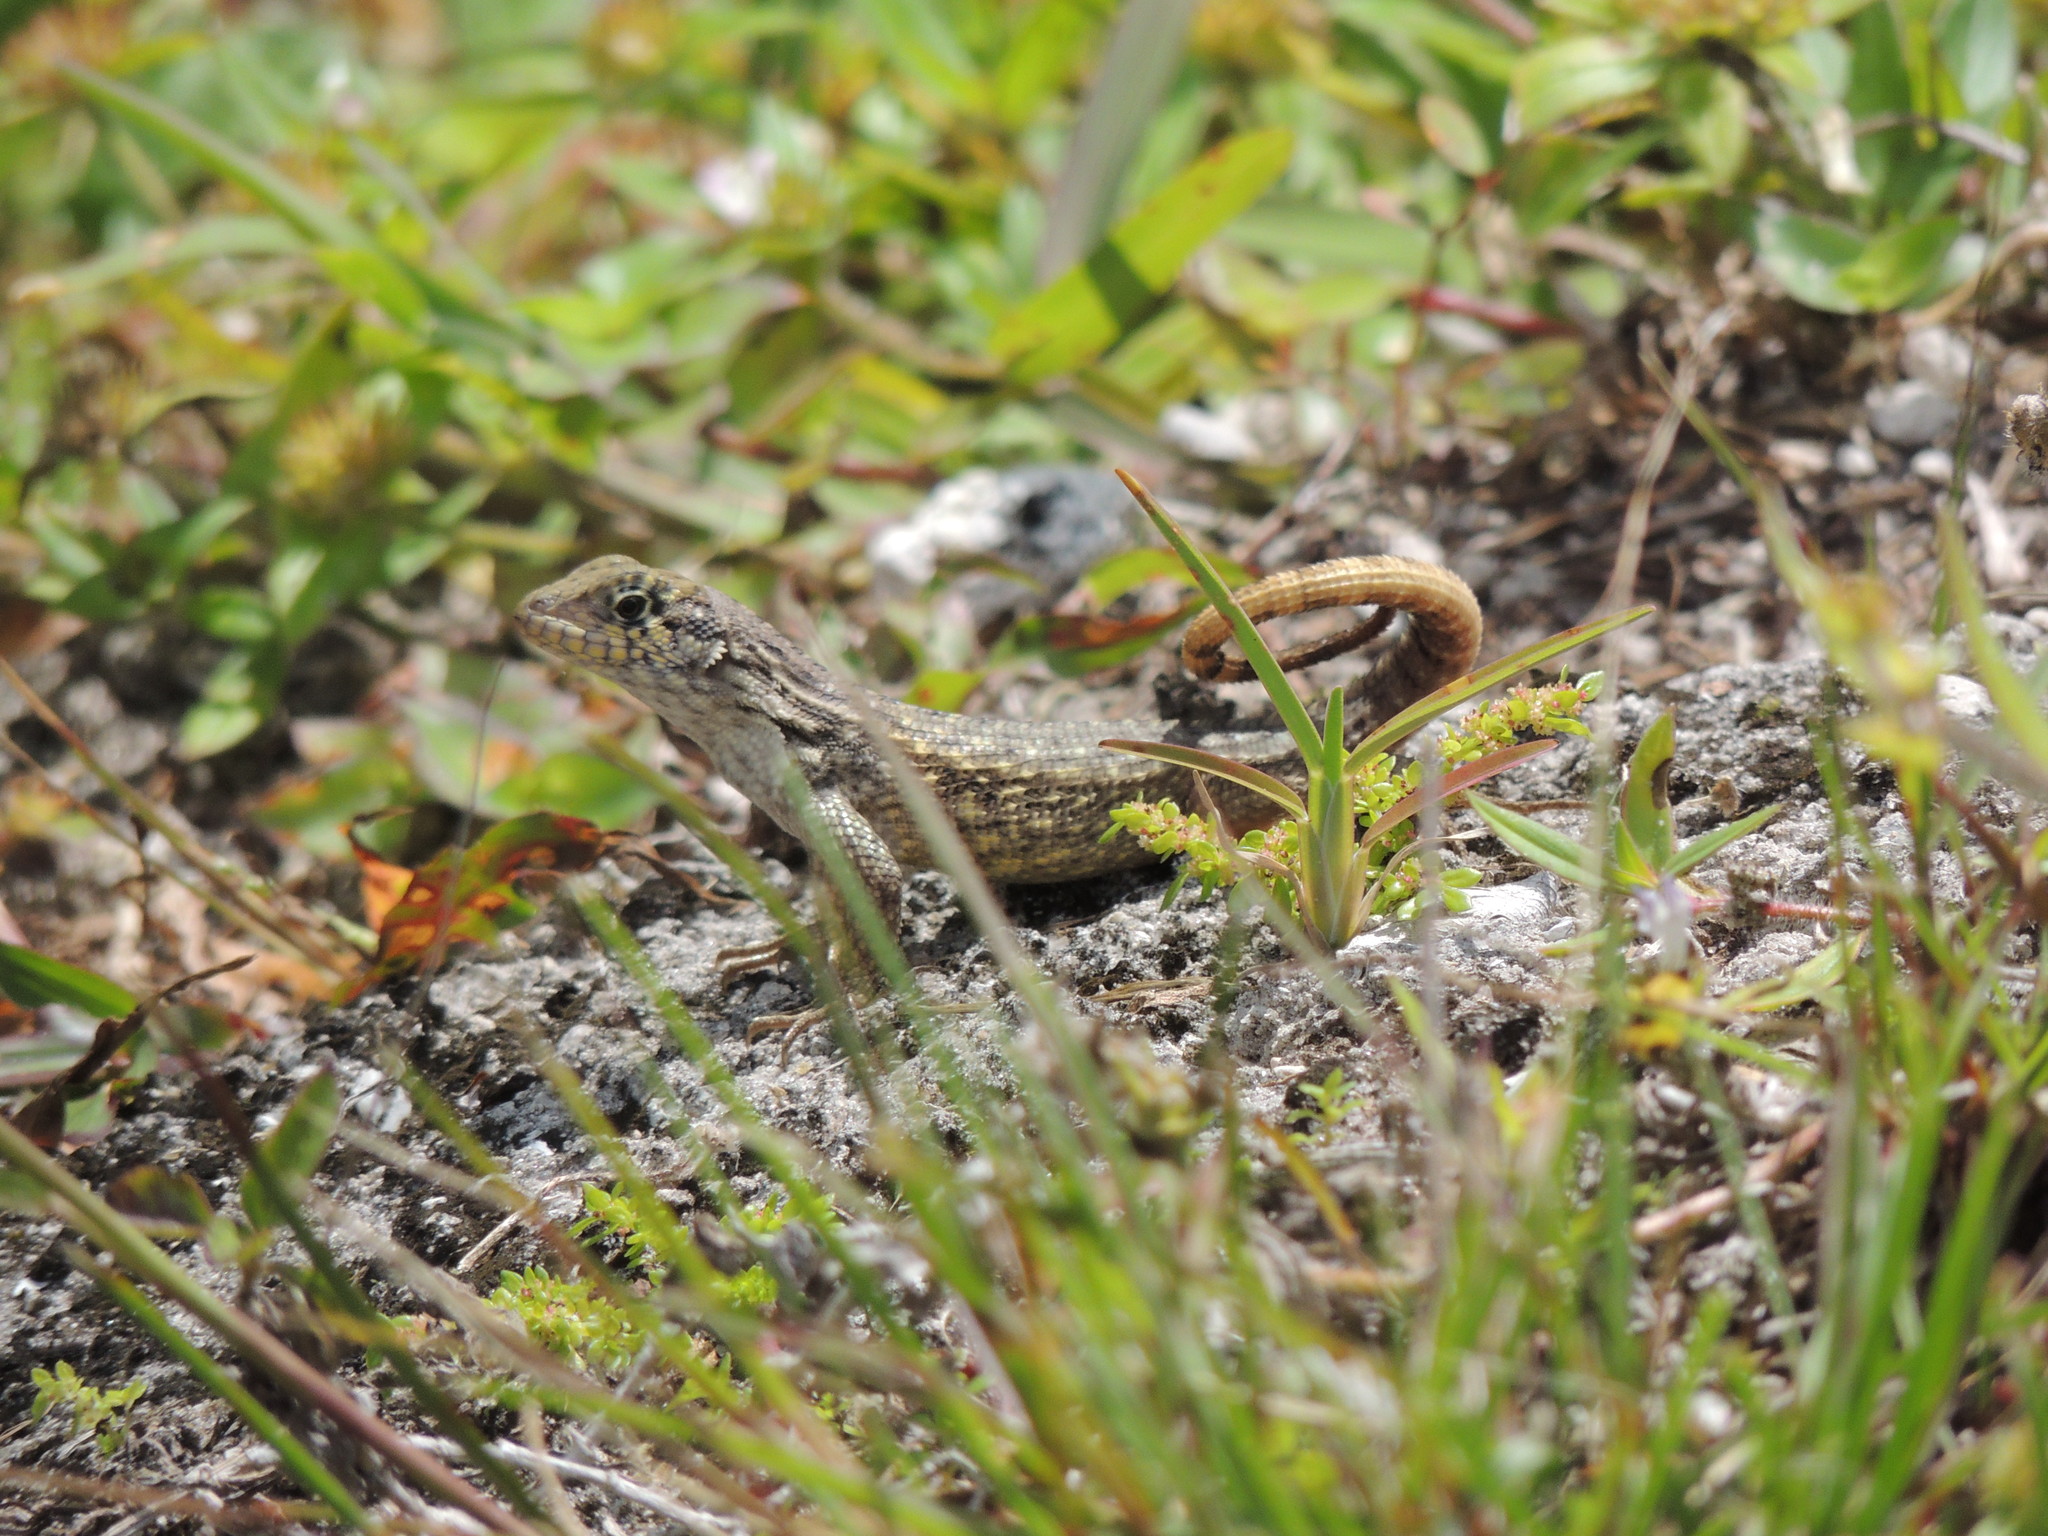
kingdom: Animalia
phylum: Chordata
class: Squamata
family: Leiocephalidae
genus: Leiocephalus
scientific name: Leiocephalus carinatus
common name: Northern curly-tailed lizard
